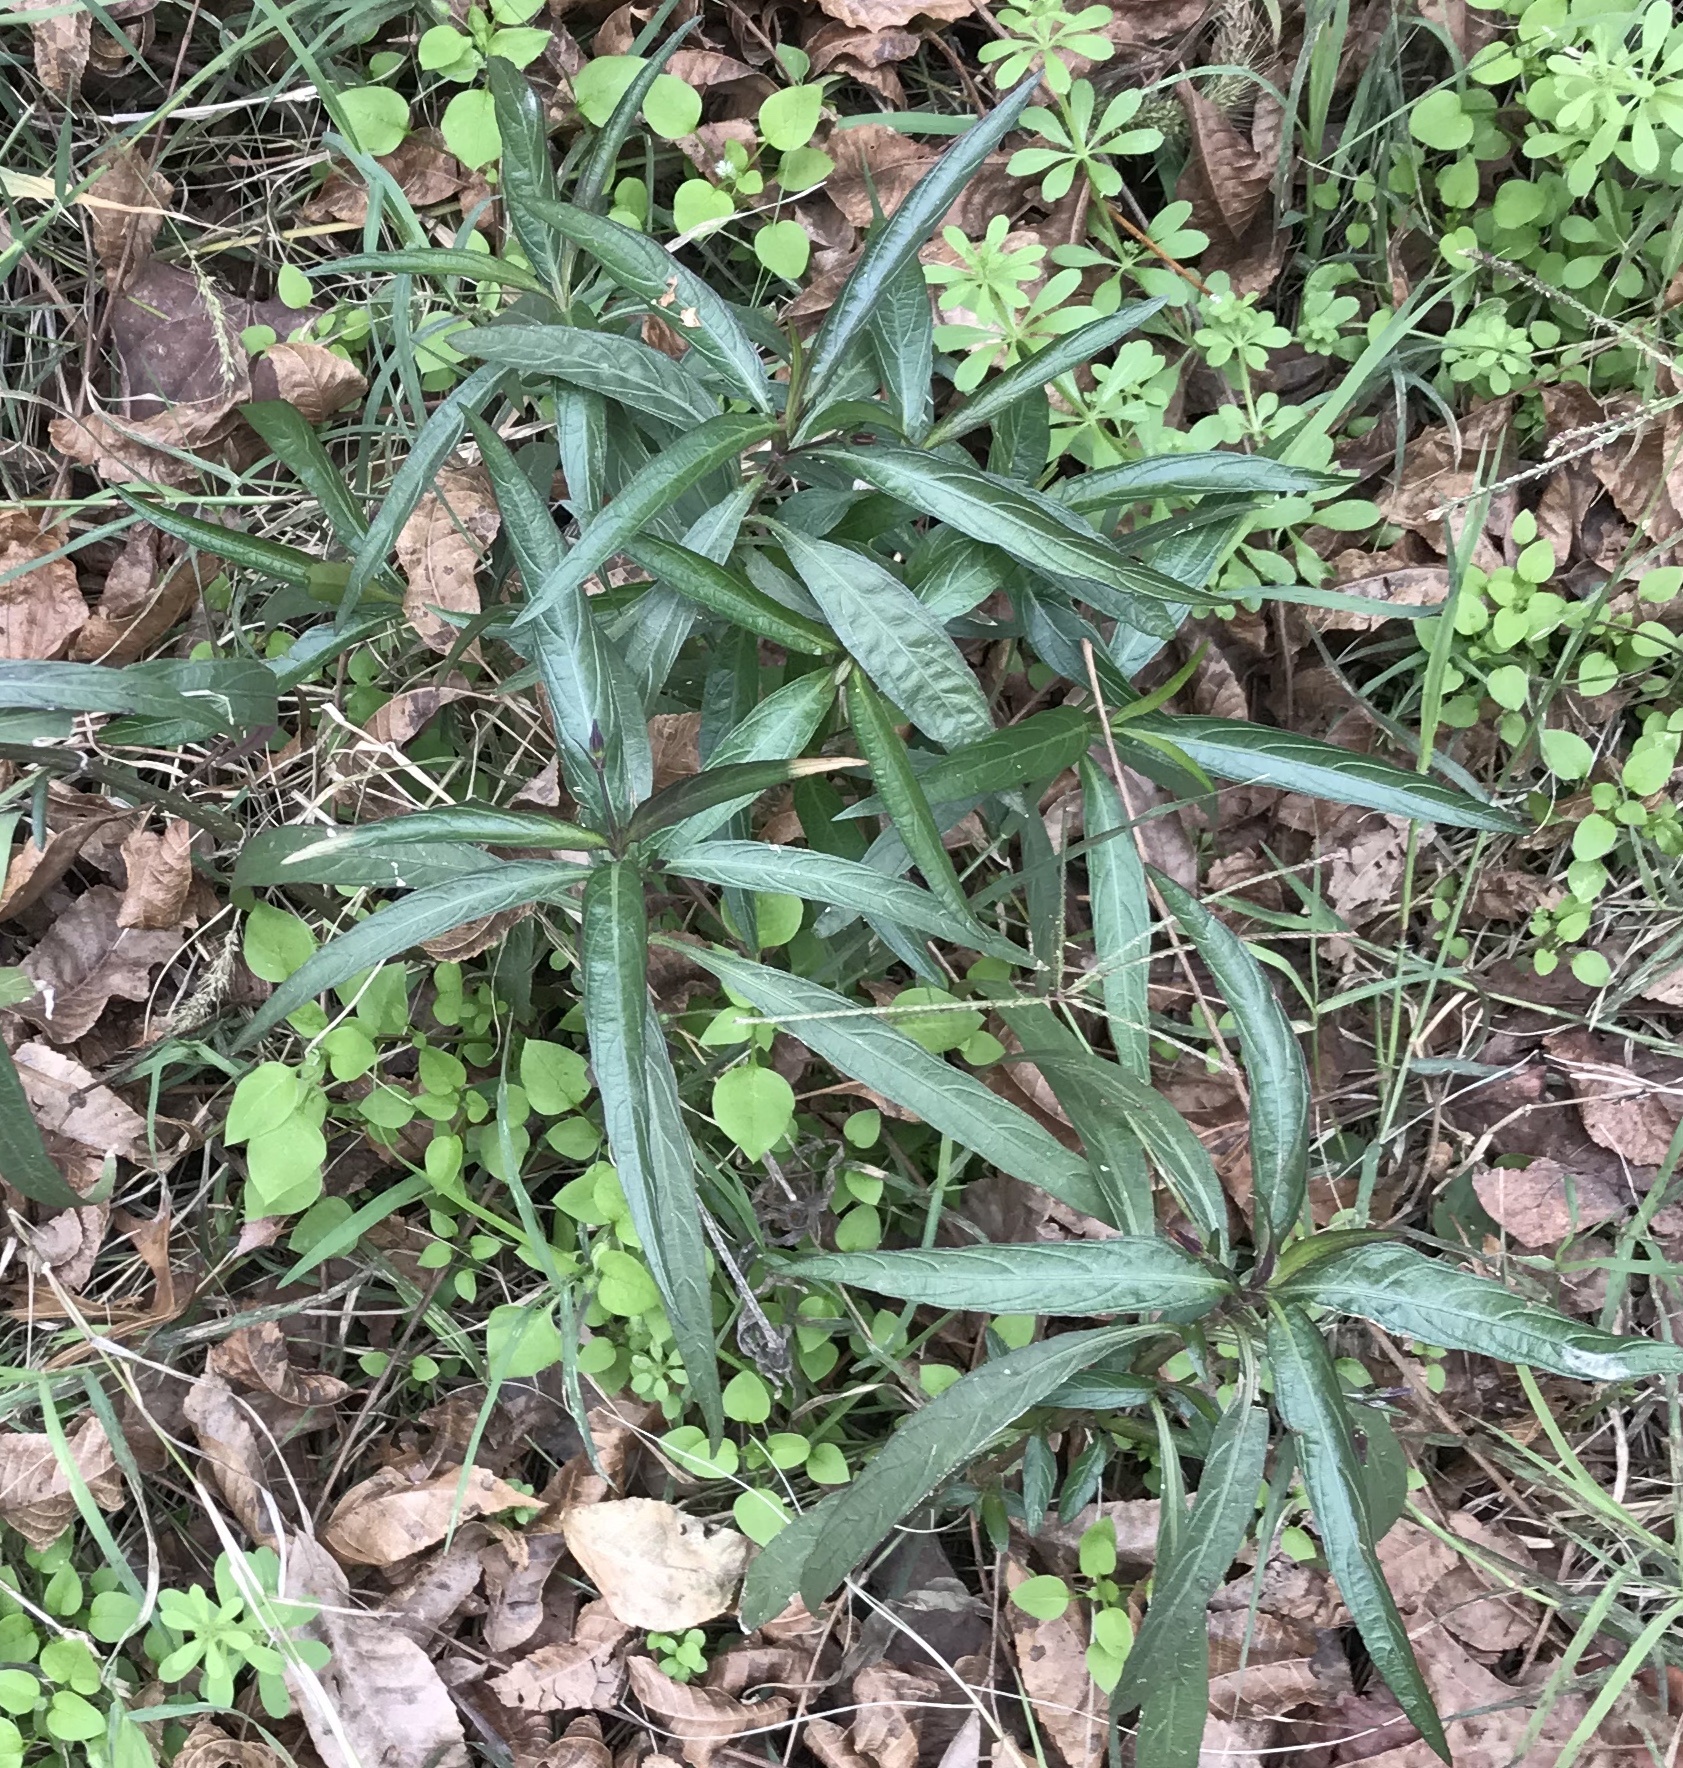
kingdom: Plantae
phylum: Tracheophyta
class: Magnoliopsida
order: Lamiales
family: Acanthaceae
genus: Ruellia
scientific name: Ruellia simplex
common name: Softseed wild petunia
